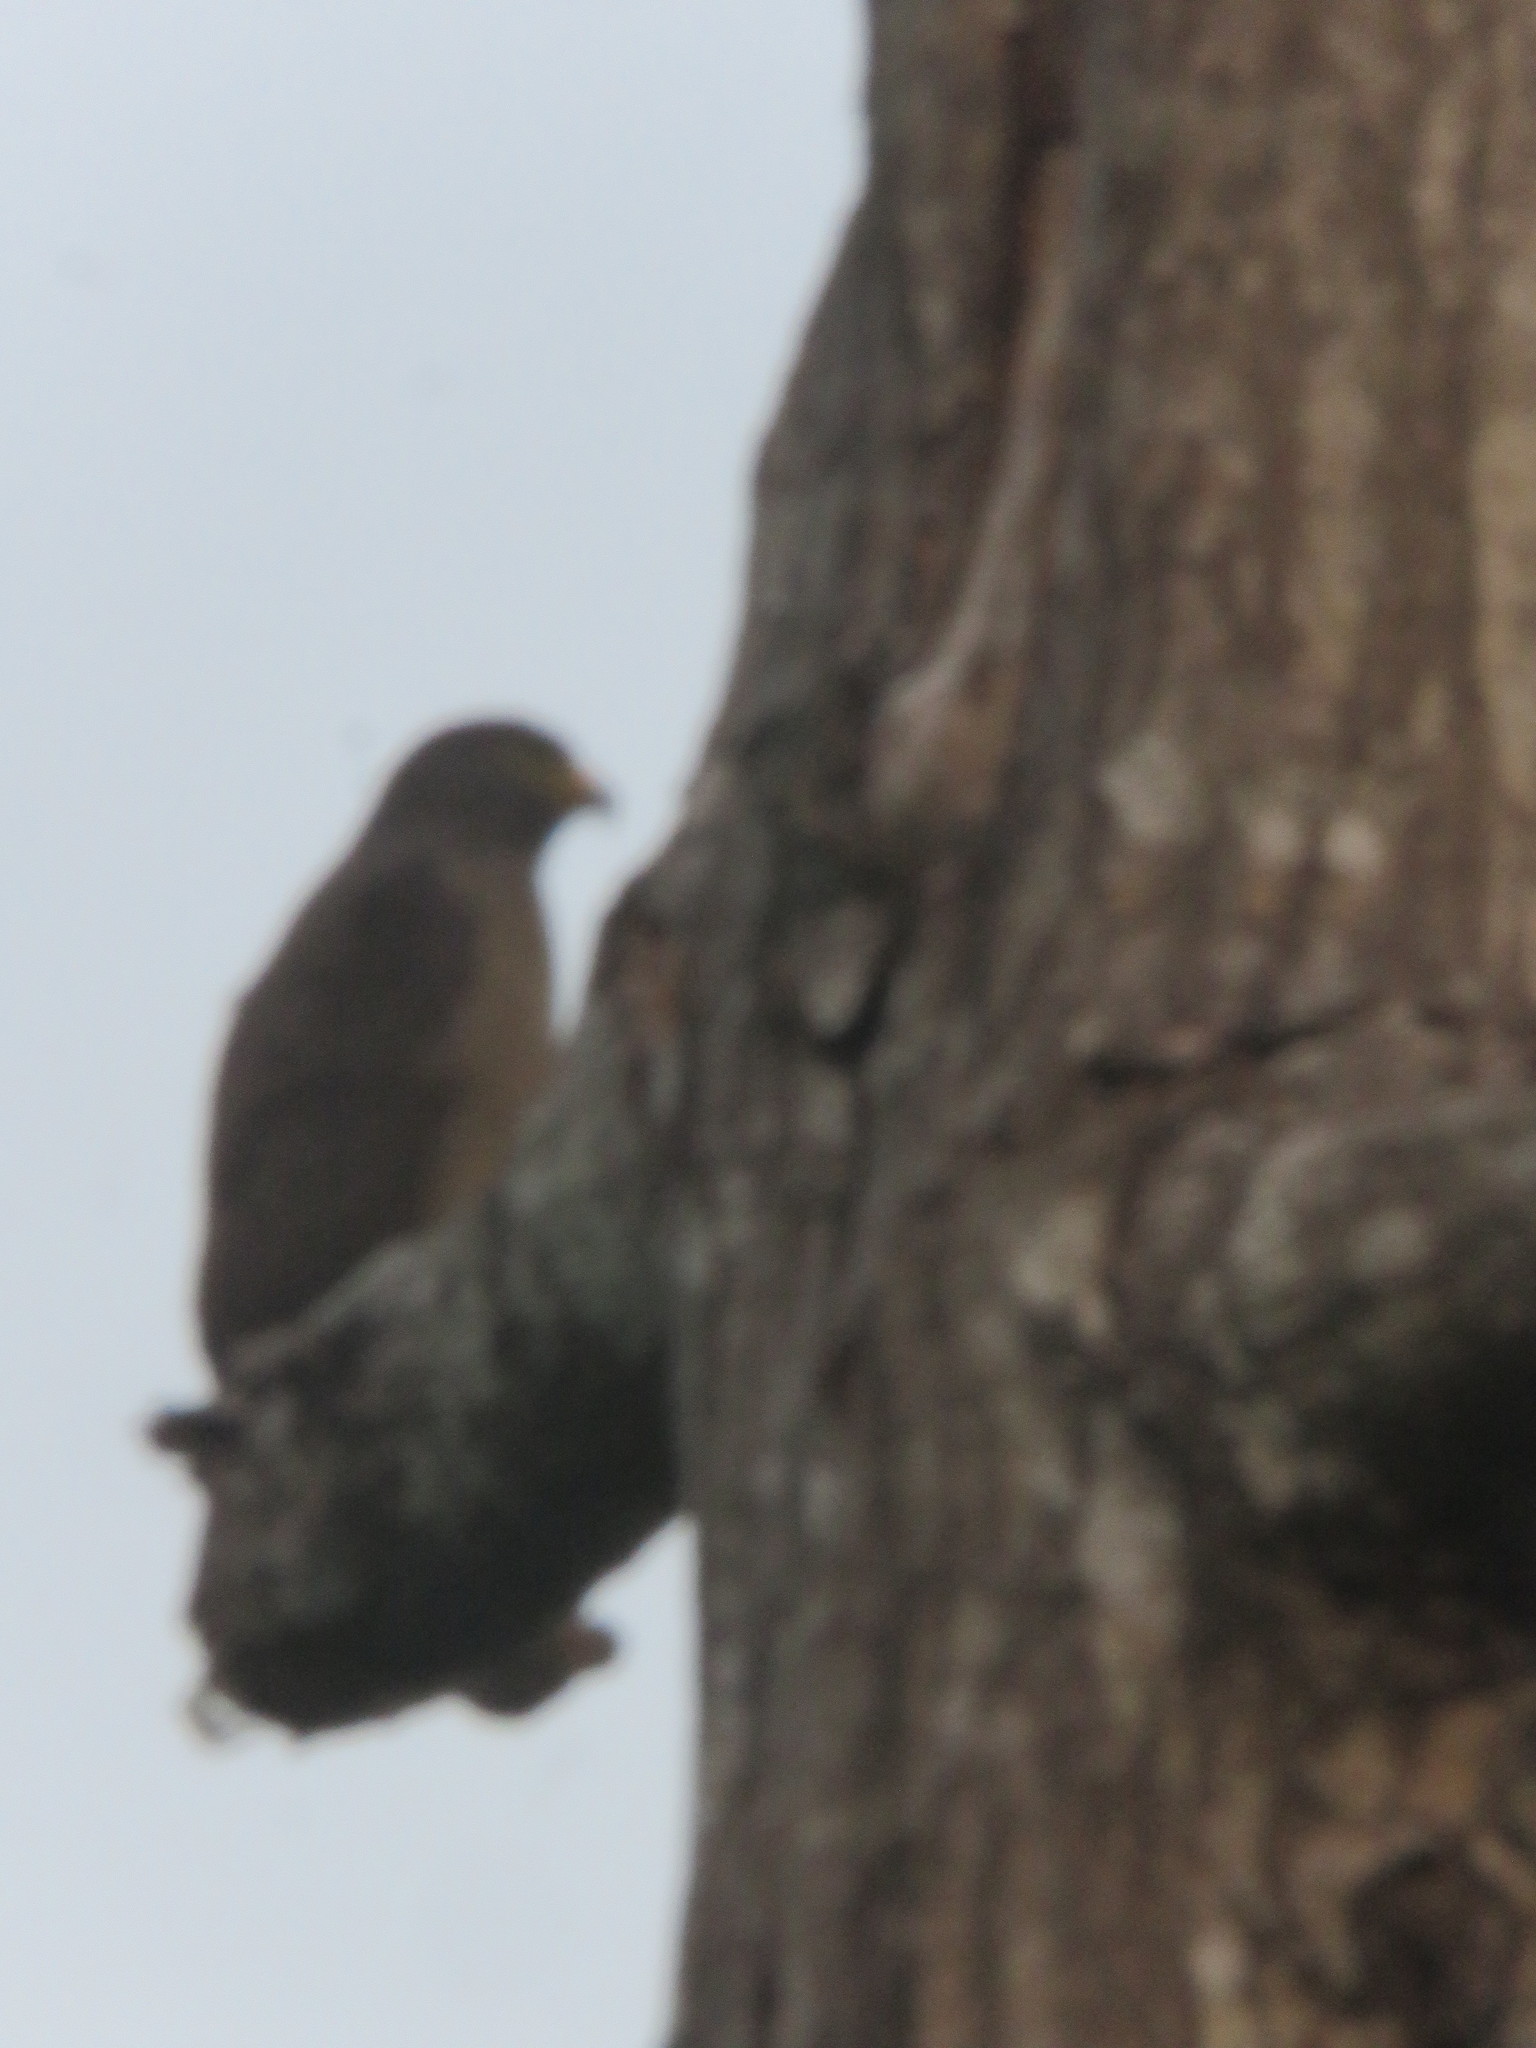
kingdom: Animalia
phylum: Chordata
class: Aves
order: Accipitriformes
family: Accipitridae
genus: Rupornis
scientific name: Rupornis magnirostris
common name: Roadside hawk
